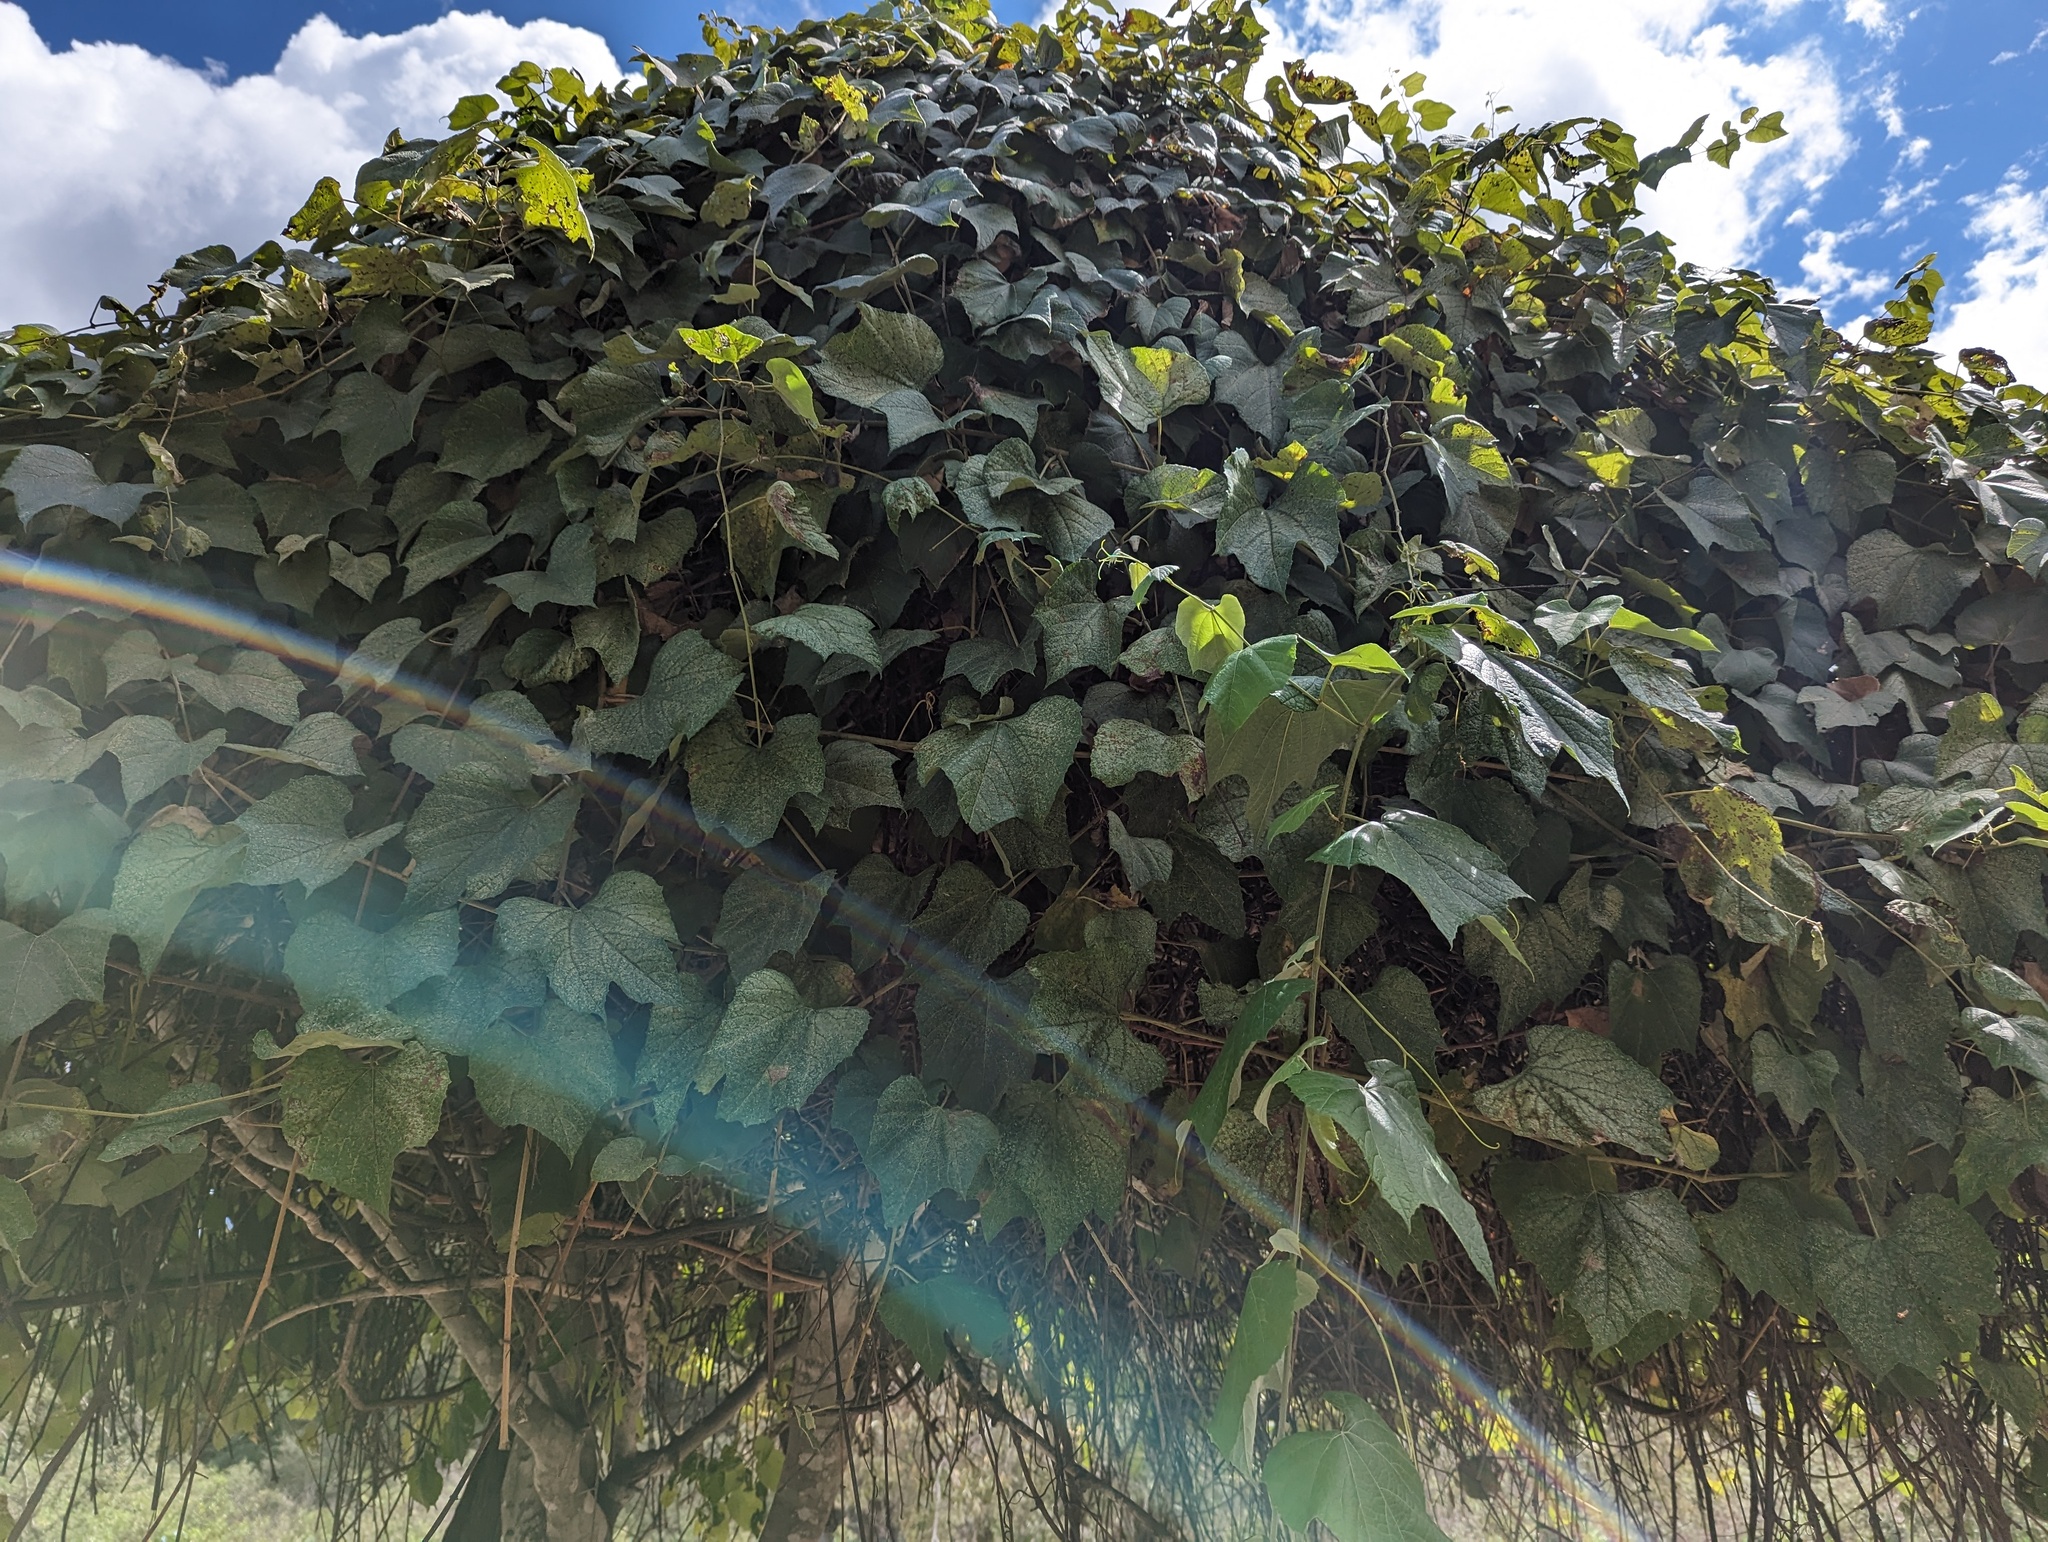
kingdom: Plantae
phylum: Tracheophyta
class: Magnoliopsida
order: Vitales
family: Vitaceae
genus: Vitis
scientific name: Vitis peninsularis
